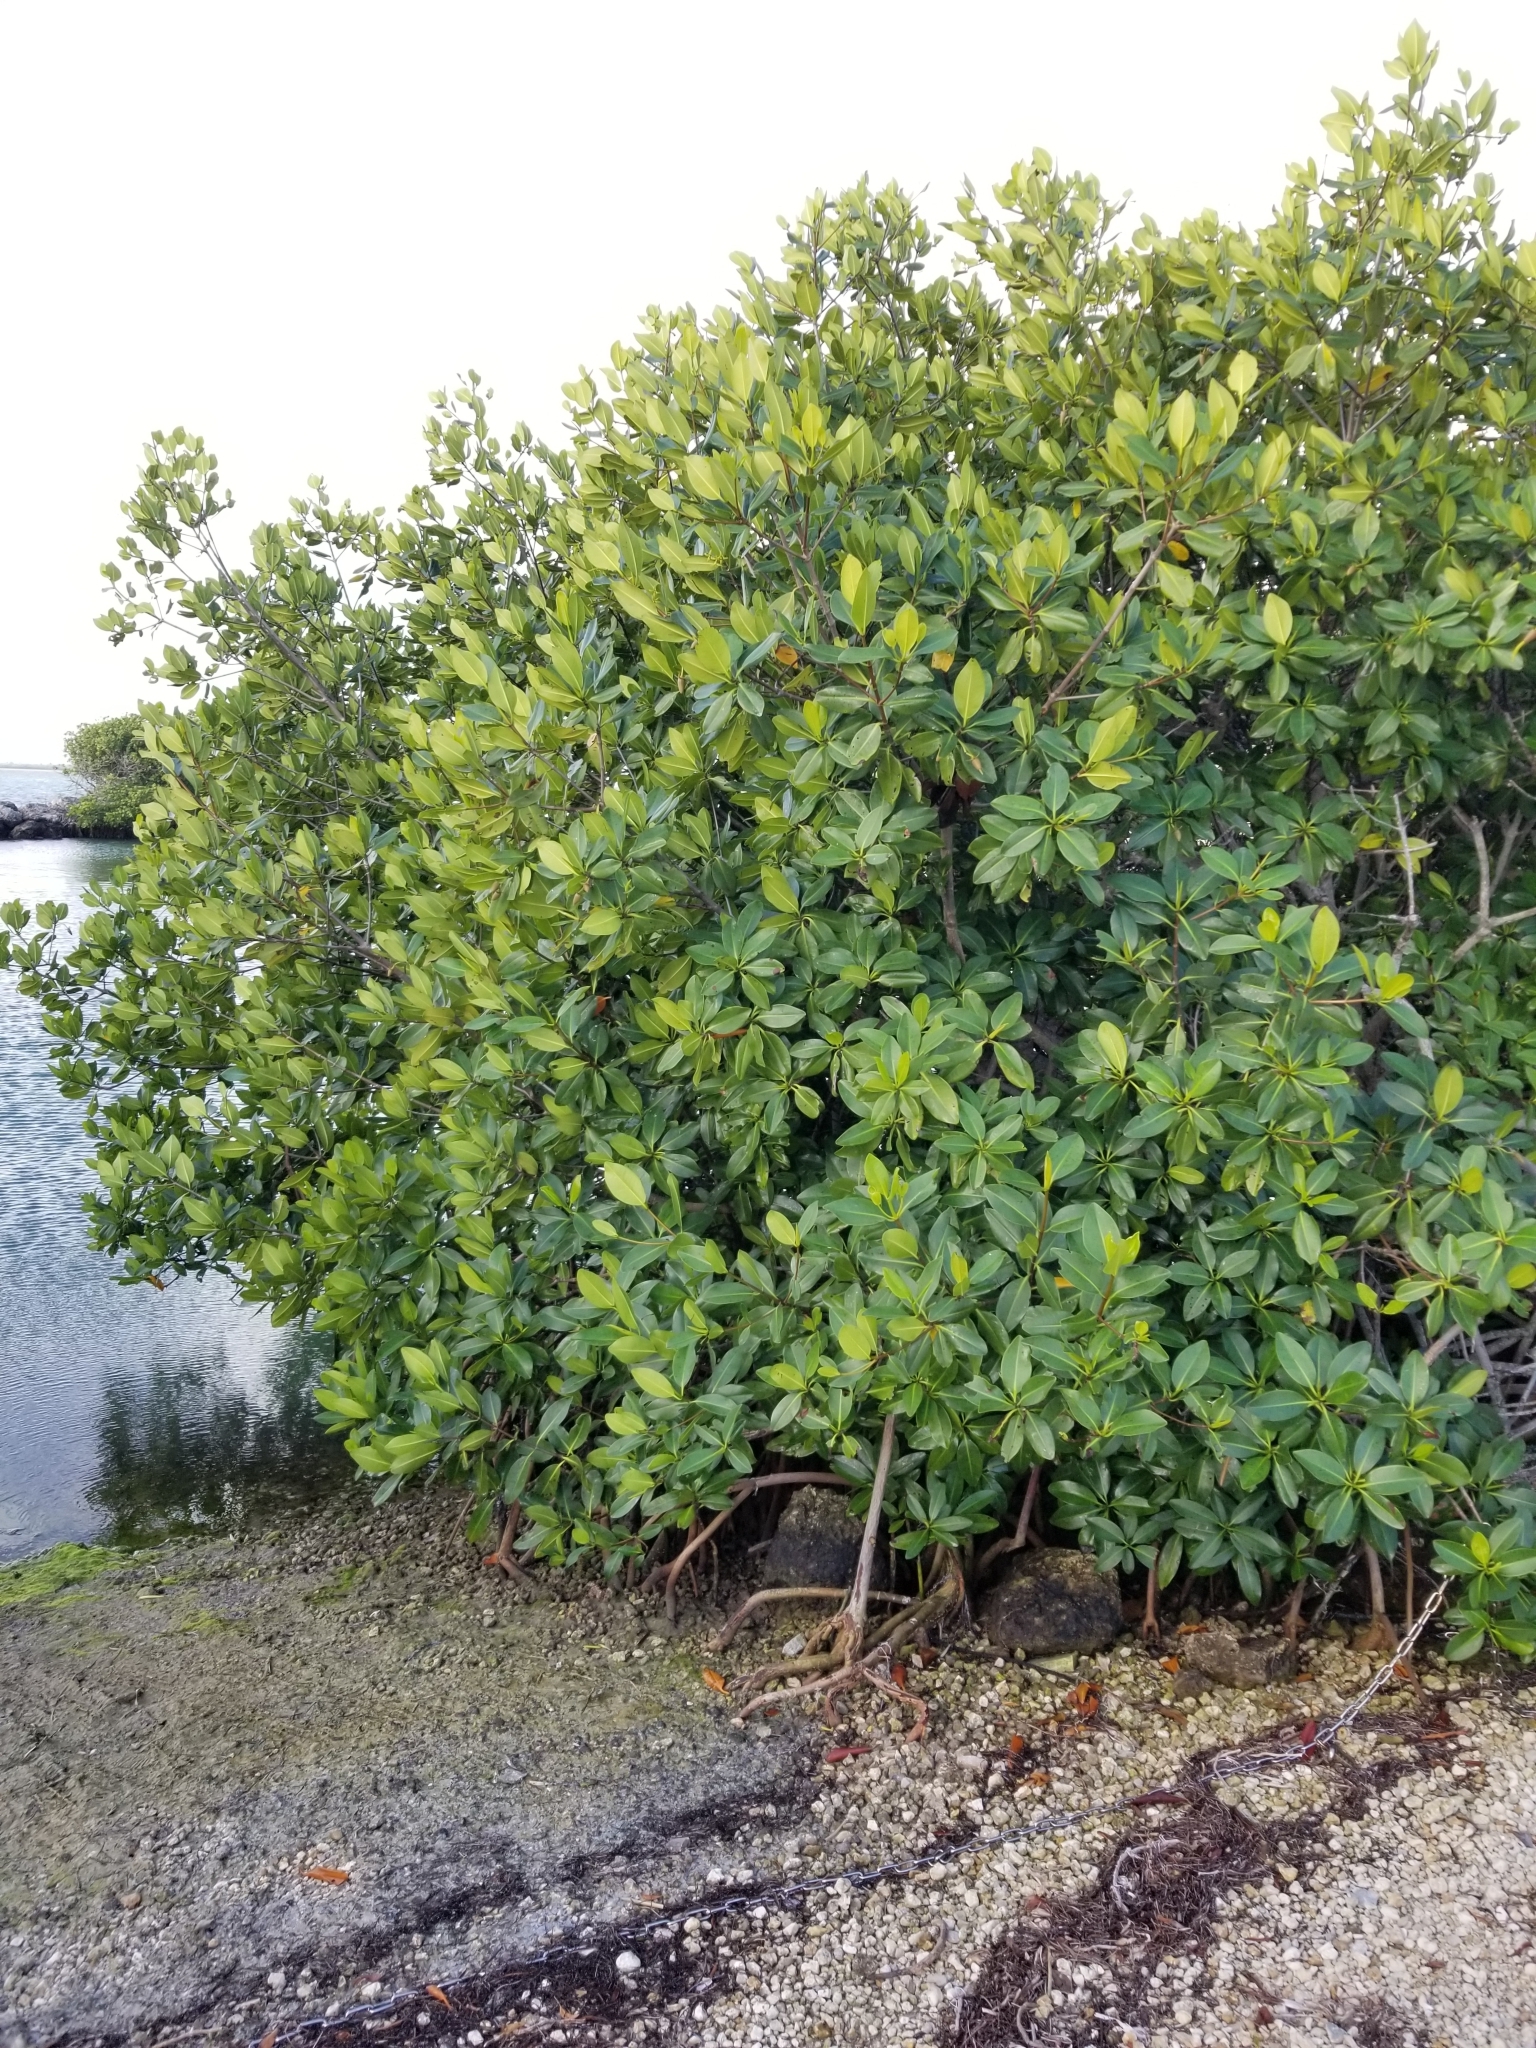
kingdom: Plantae
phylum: Tracheophyta
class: Magnoliopsida
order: Malpighiales
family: Rhizophoraceae
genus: Rhizophora
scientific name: Rhizophora mangle
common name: Red mangrove
